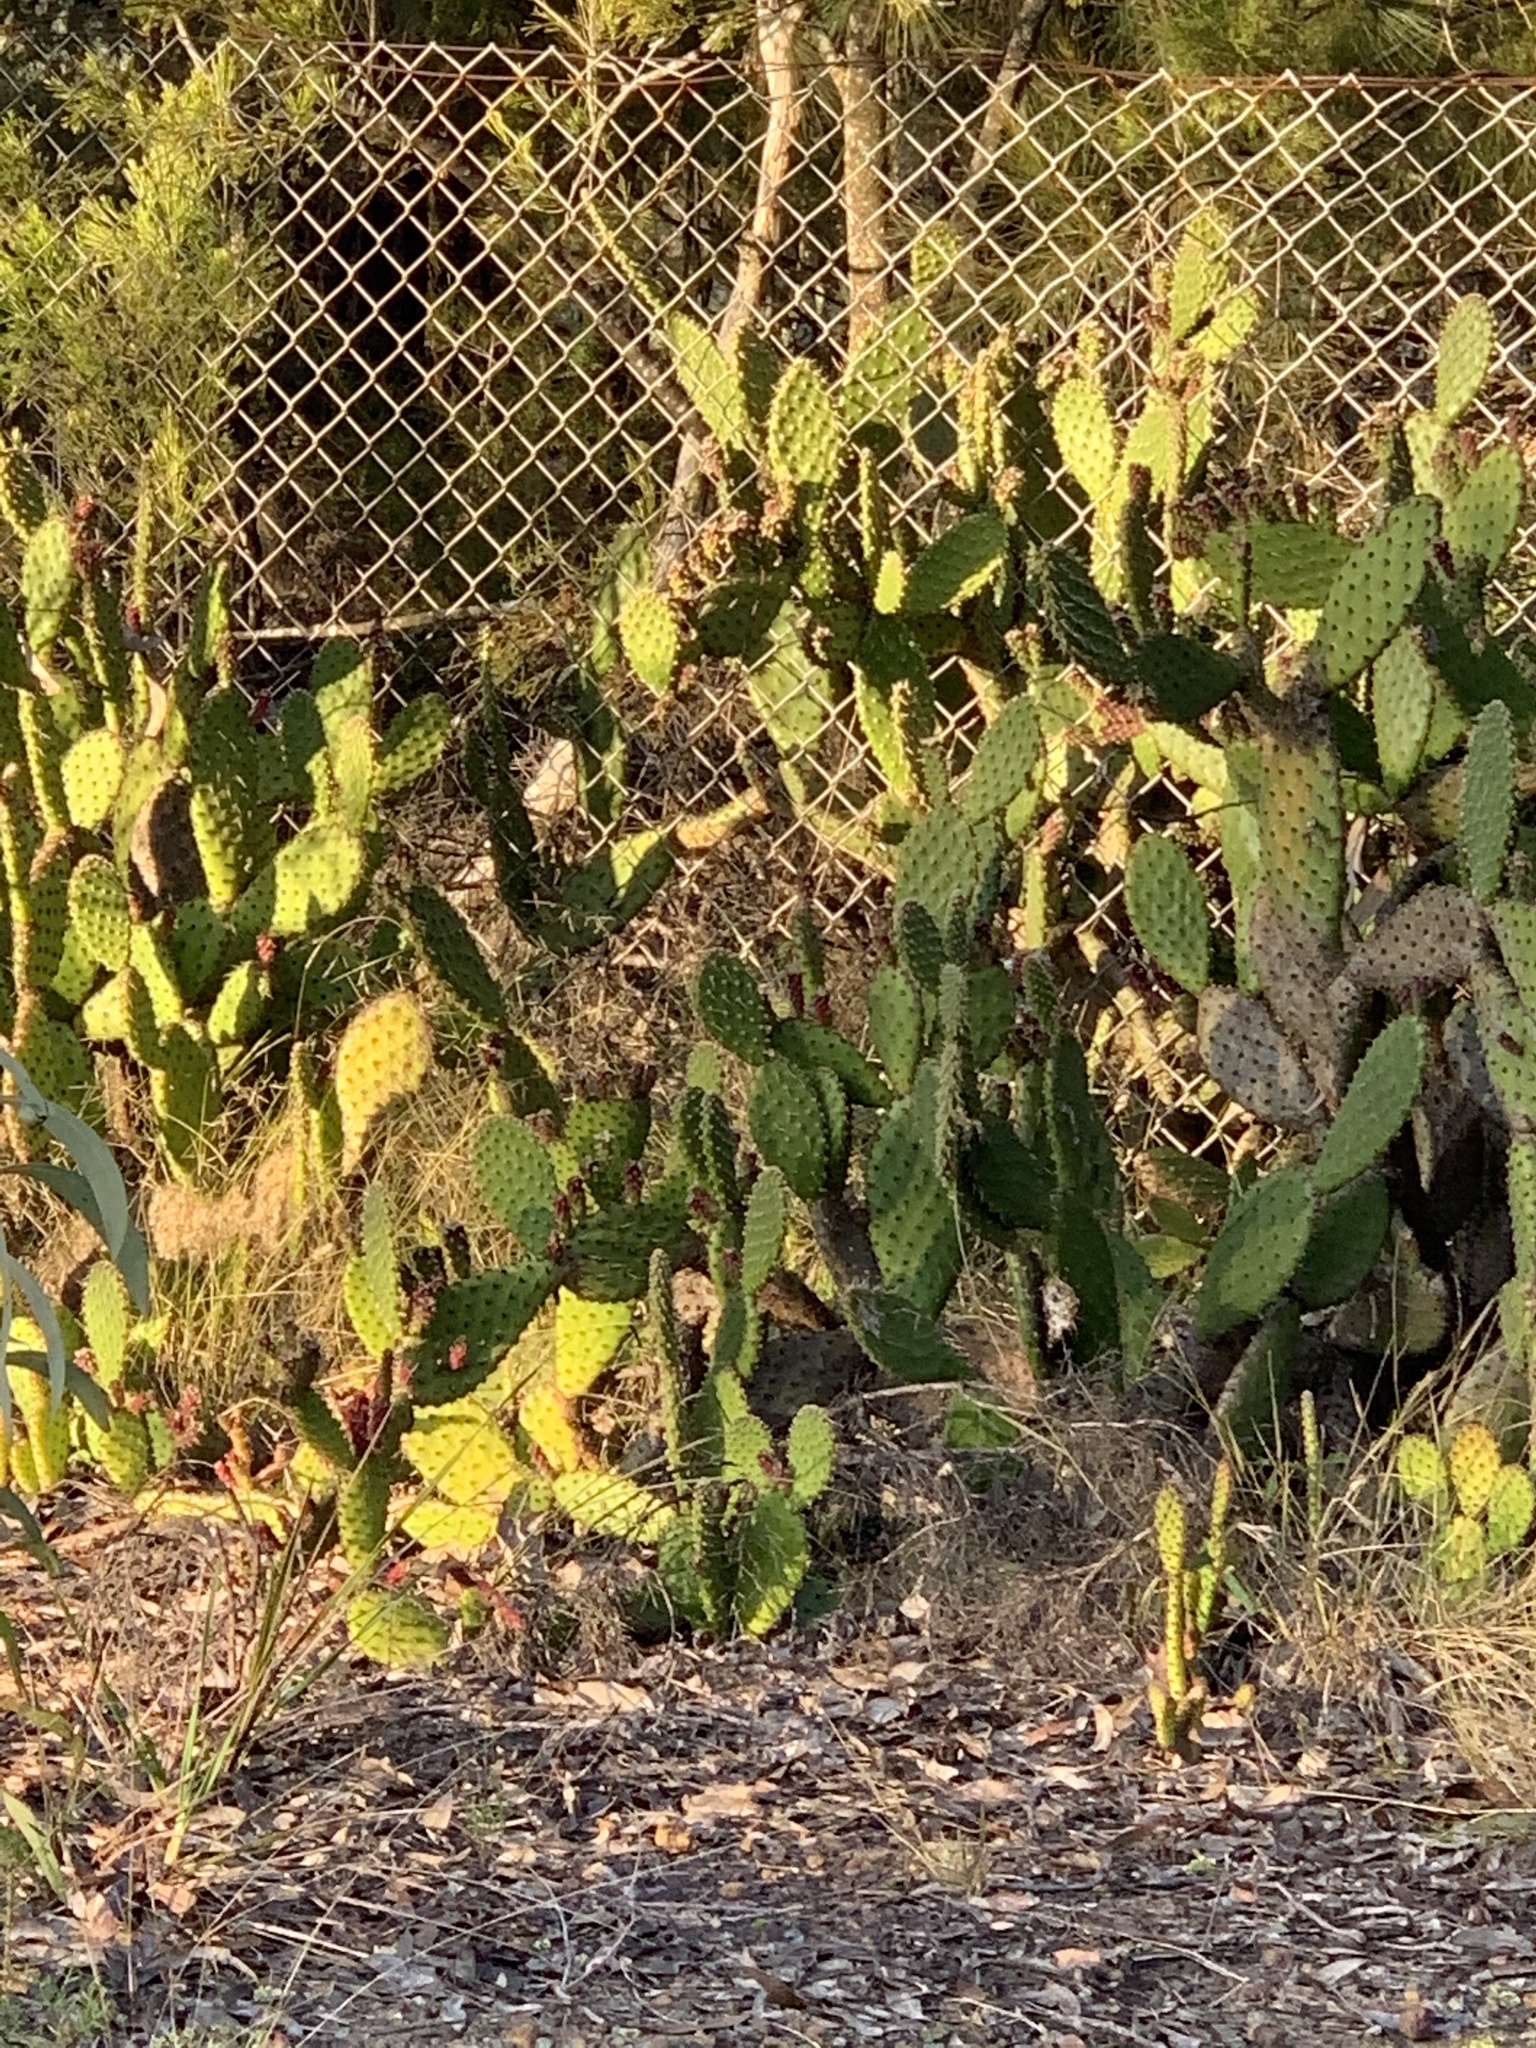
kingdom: Plantae
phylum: Tracheophyta
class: Magnoliopsida
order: Caryophyllales
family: Cactaceae
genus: Opuntia
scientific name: Opuntia puberula
